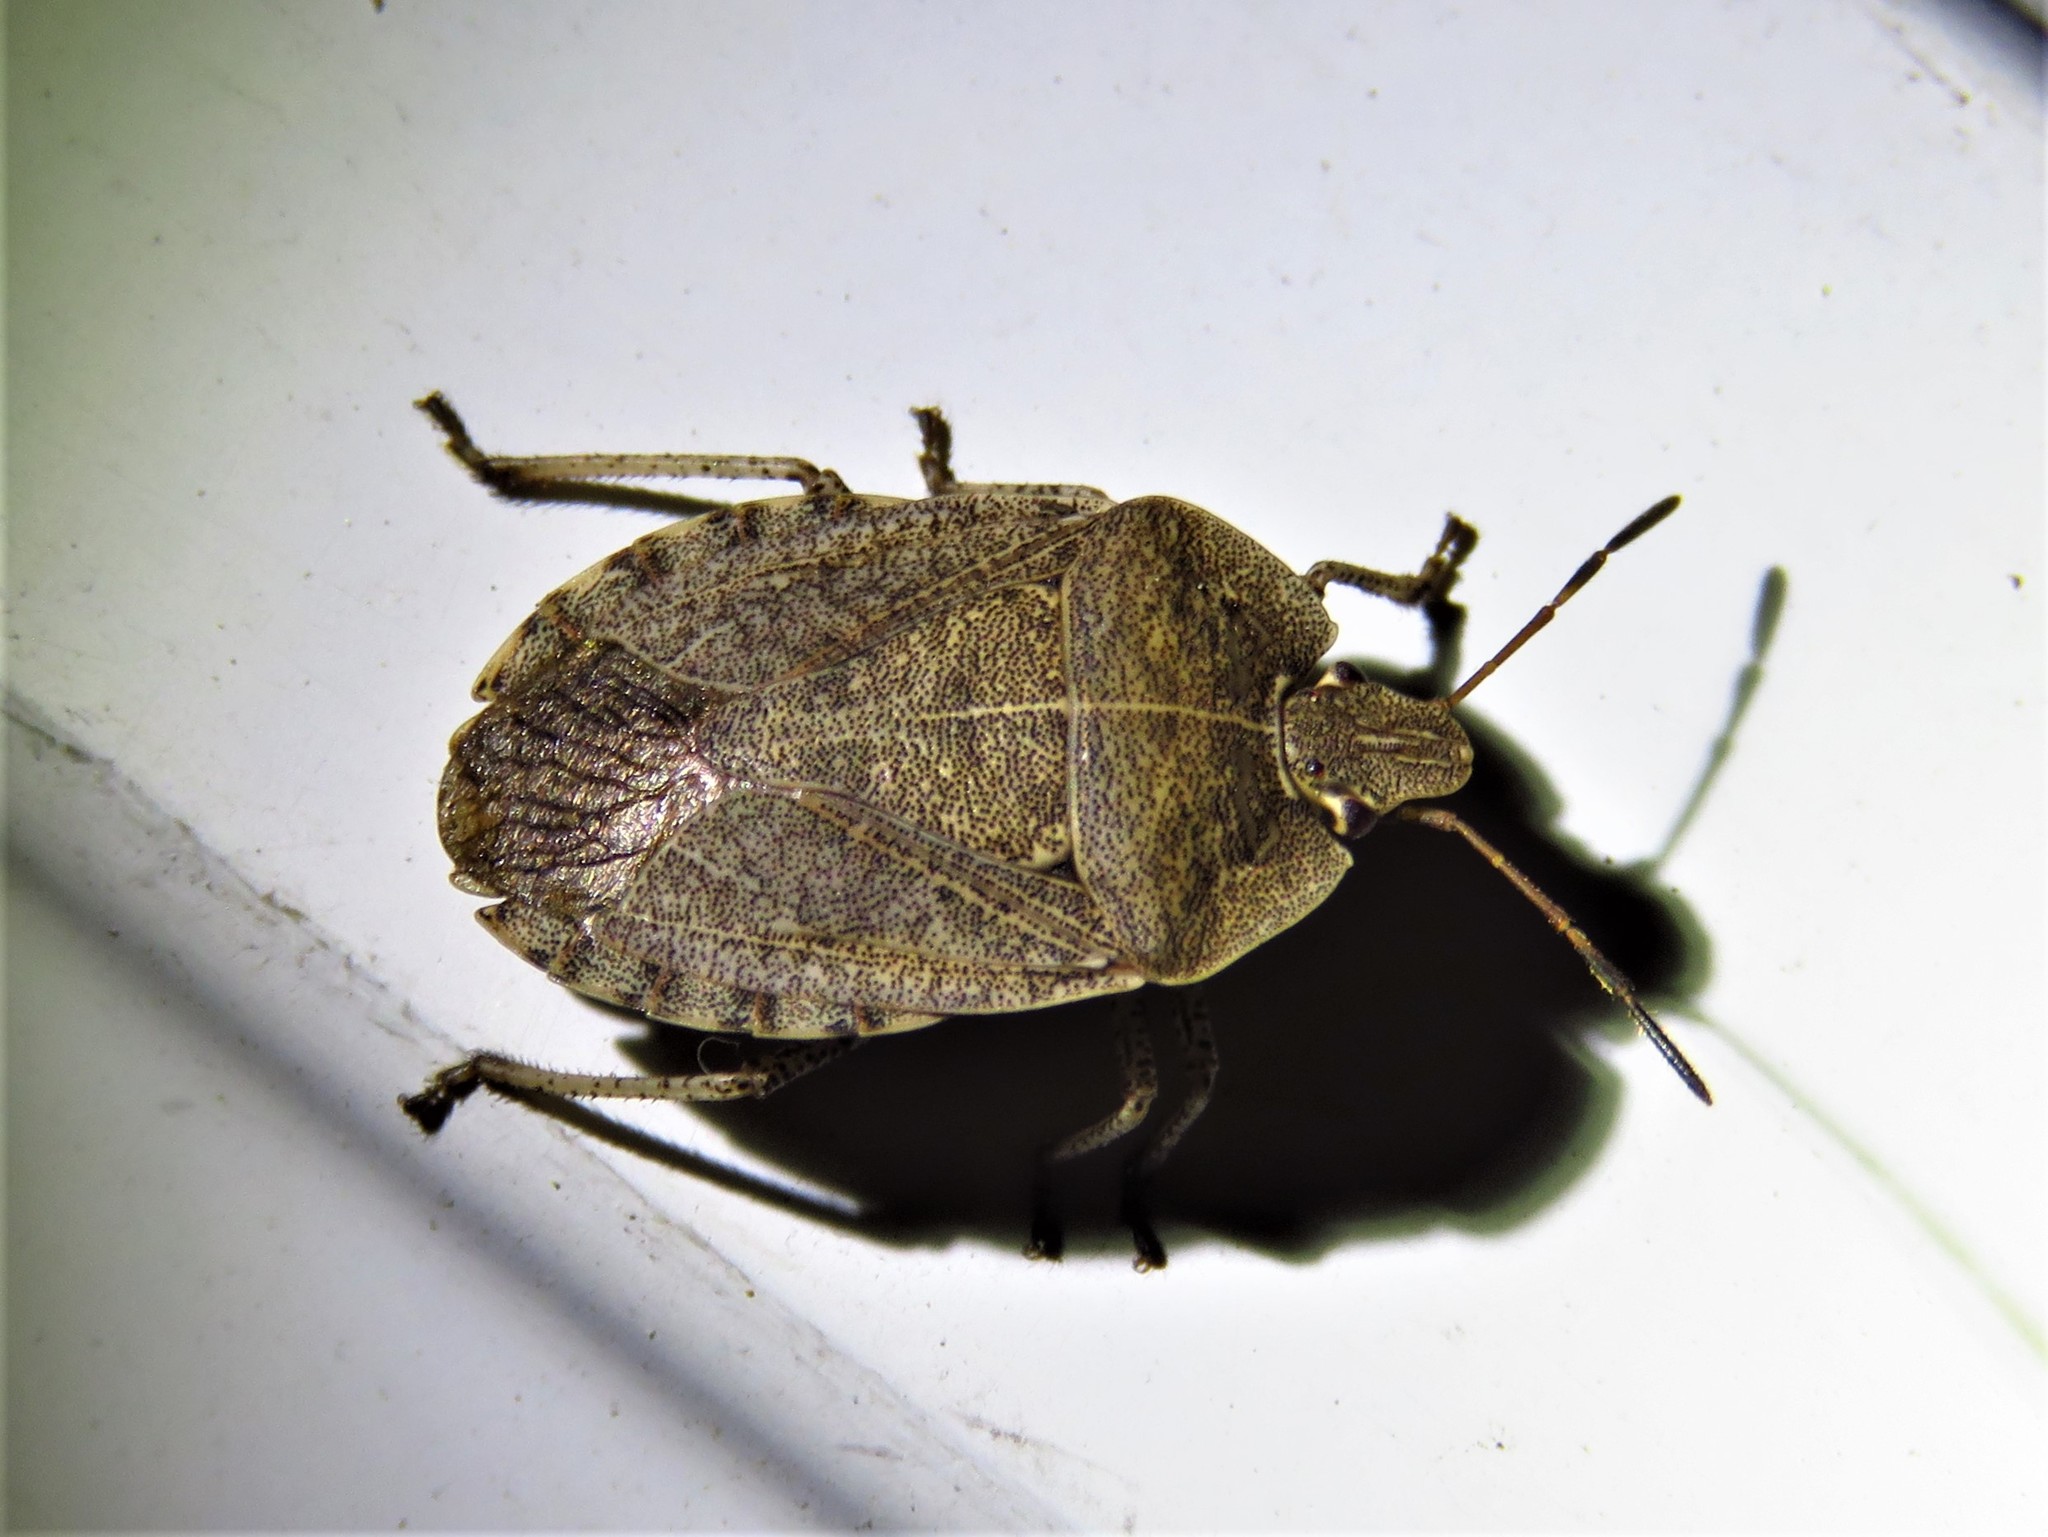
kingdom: Animalia
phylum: Arthropoda
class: Insecta
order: Hemiptera
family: Pentatomidae
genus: Menecles
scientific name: Menecles insertus
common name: Elf shoe stink bug
